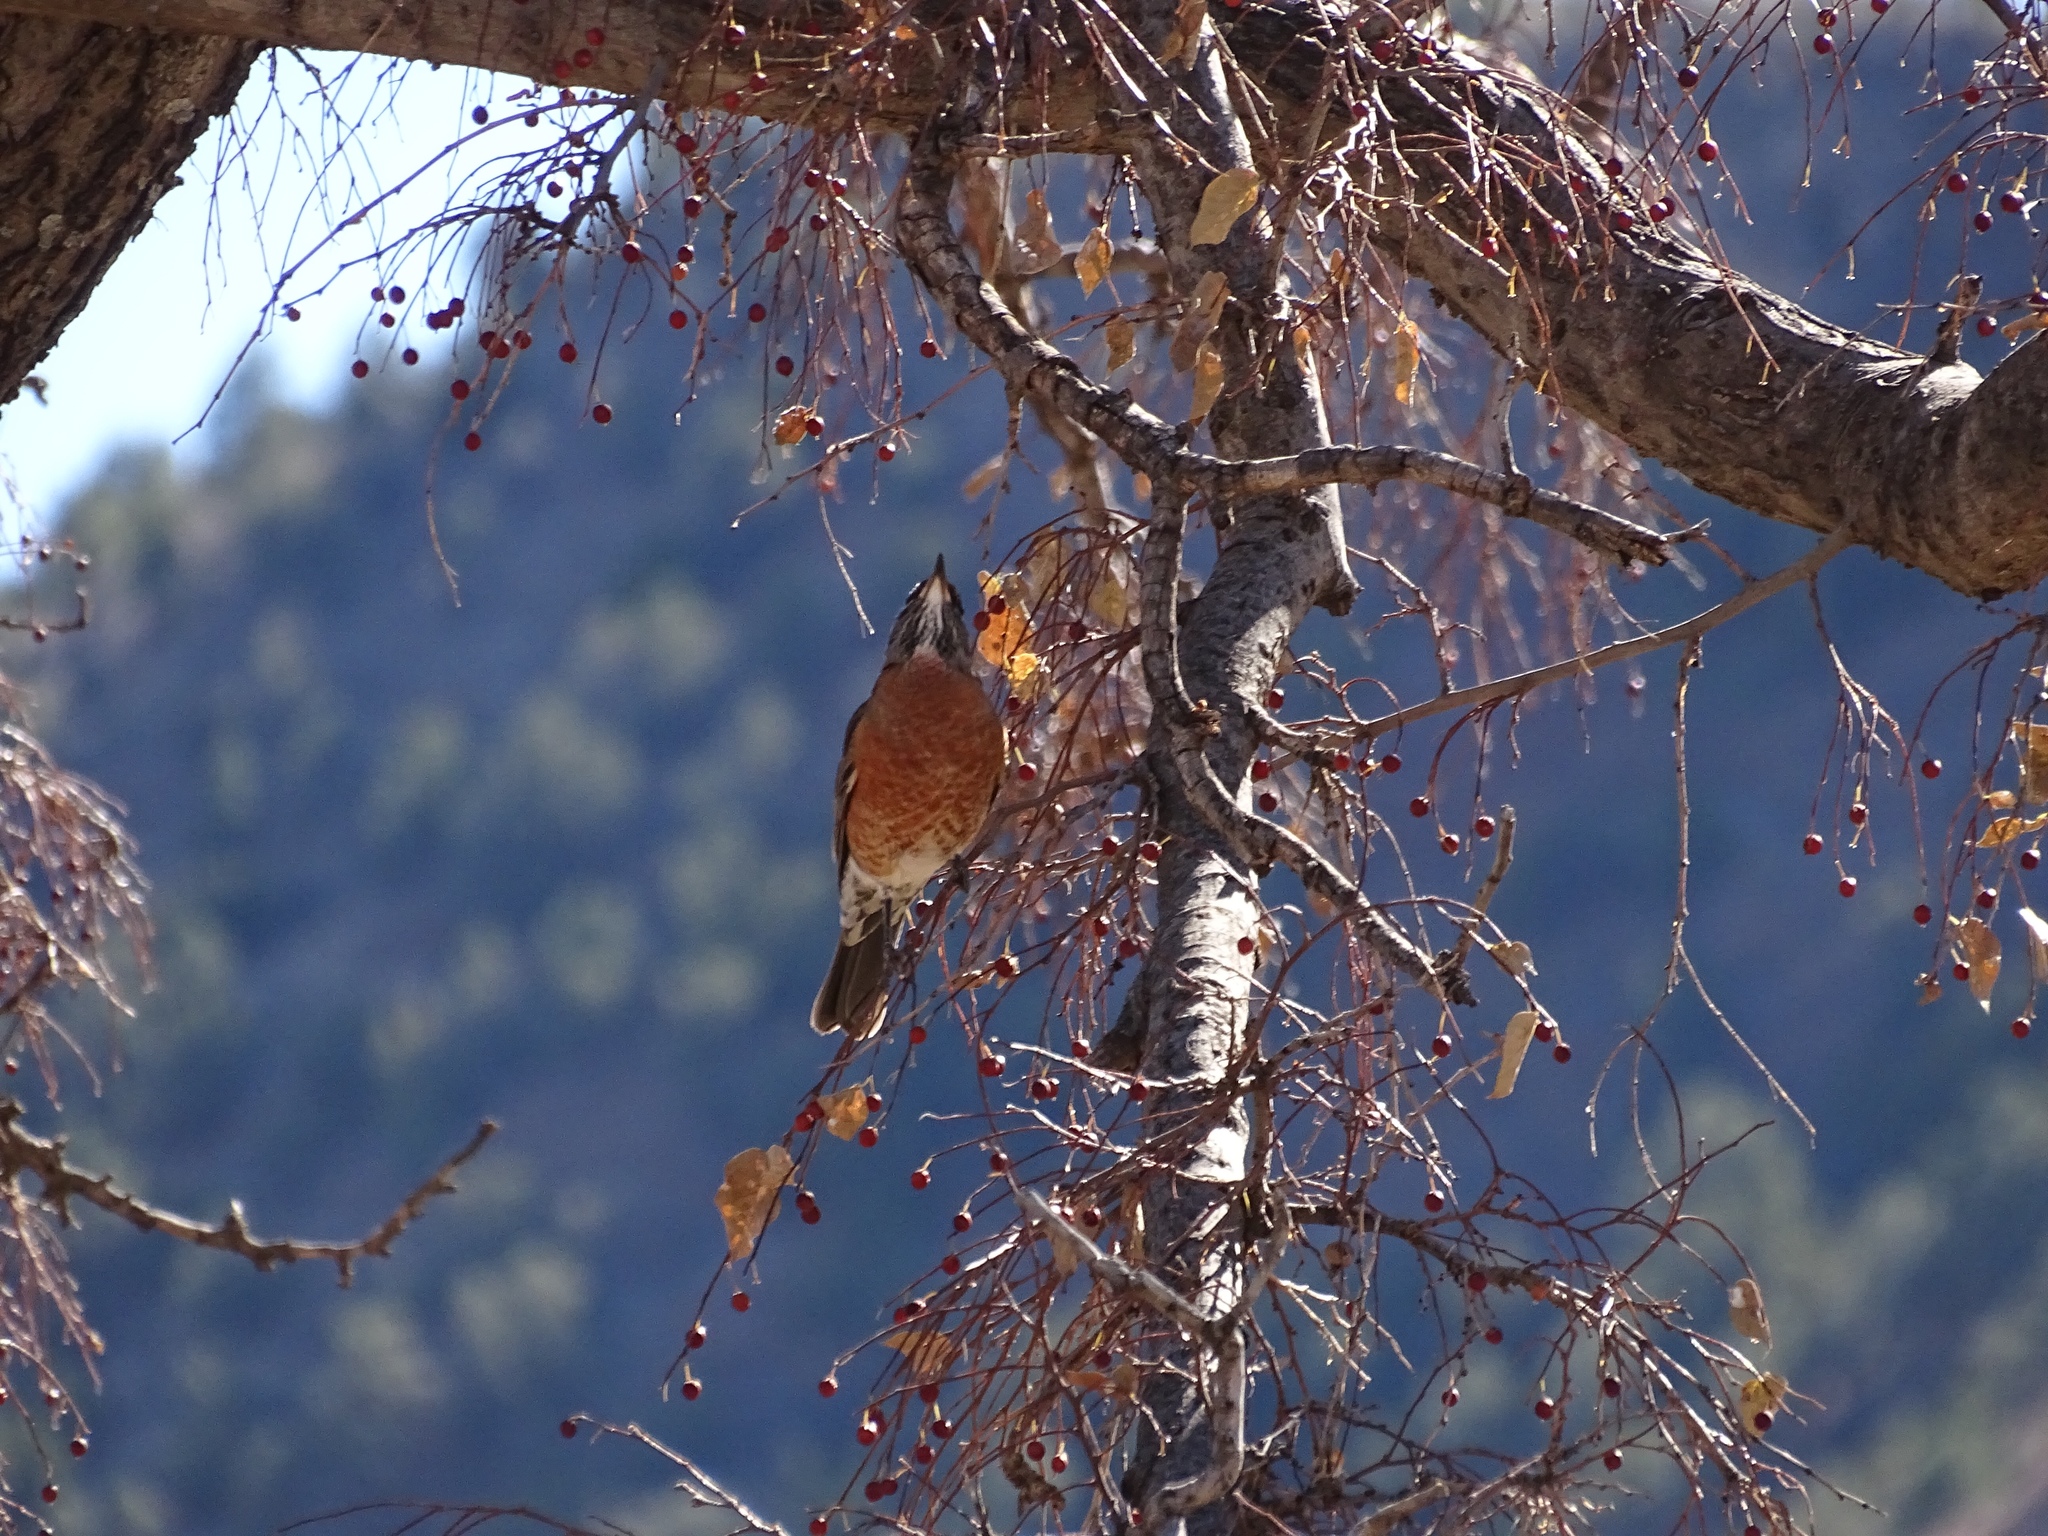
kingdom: Animalia
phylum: Chordata
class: Aves
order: Passeriformes
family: Turdidae
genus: Turdus
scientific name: Turdus migratorius
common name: American robin
